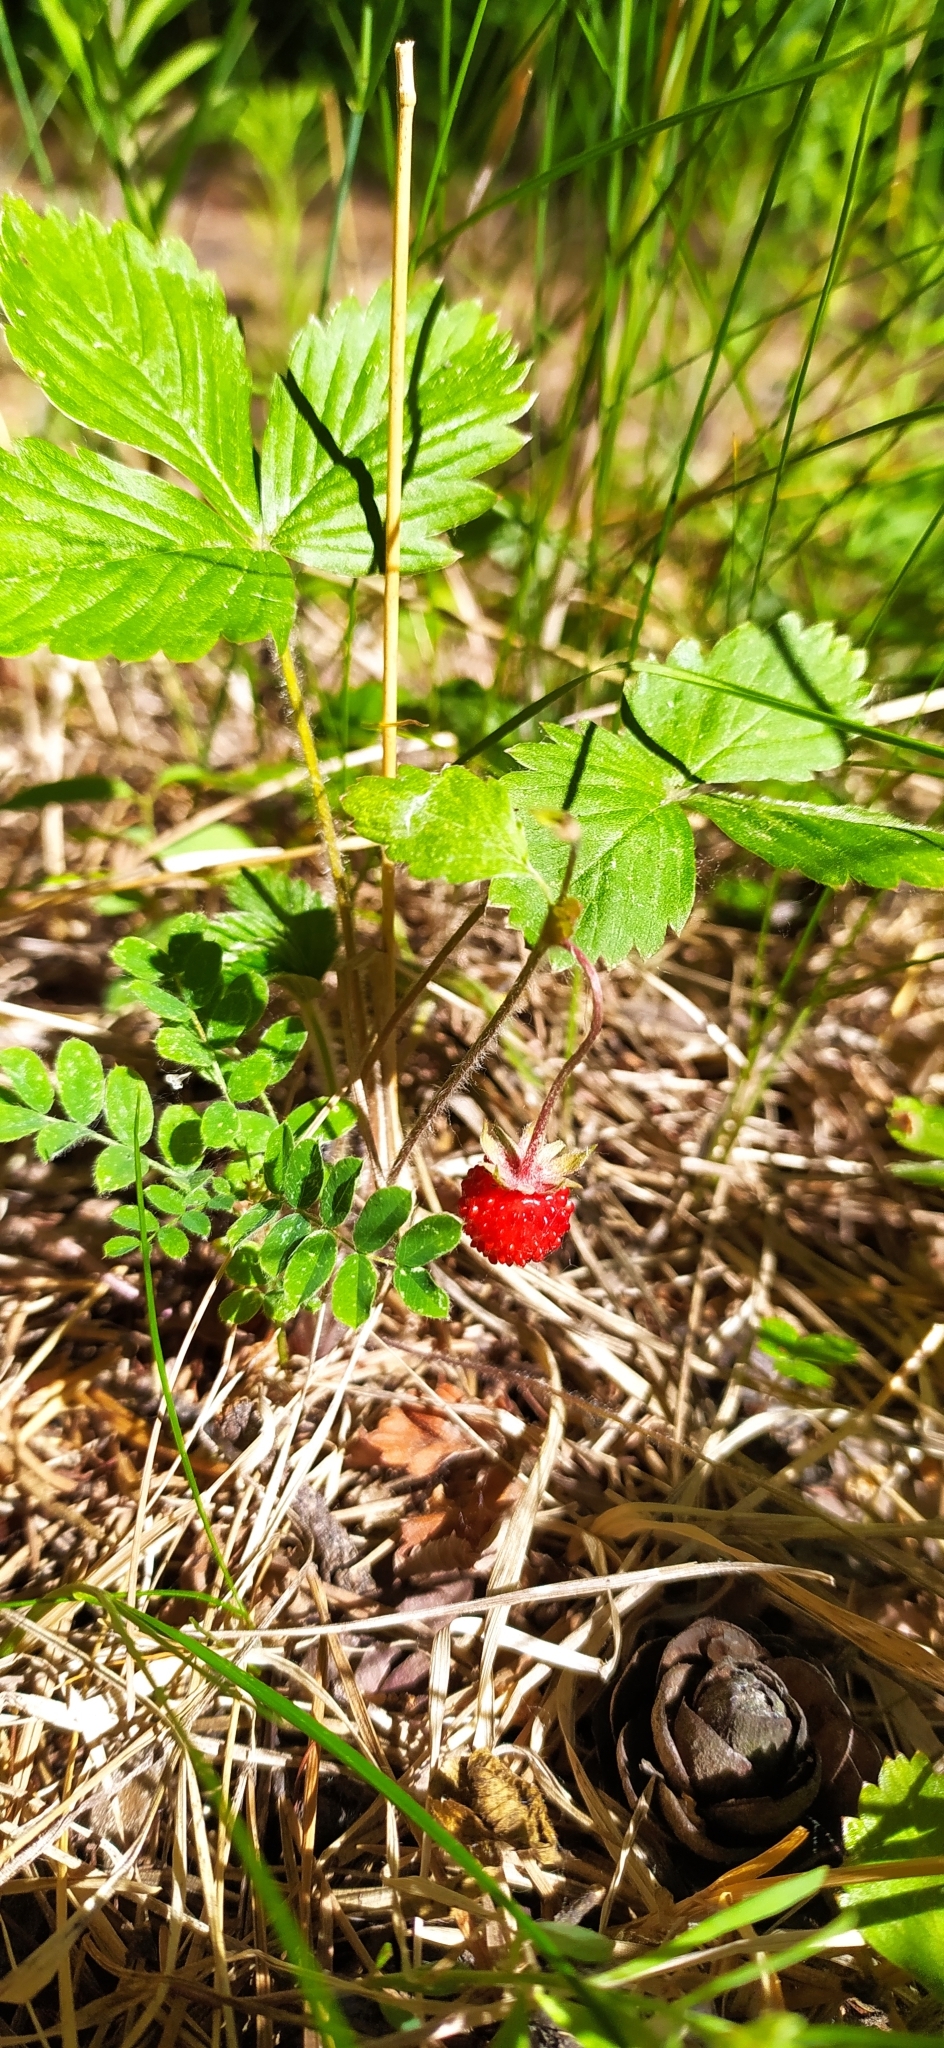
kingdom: Plantae
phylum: Tracheophyta
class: Magnoliopsida
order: Rosales
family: Rosaceae
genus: Fragaria
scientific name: Fragaria vesca
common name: Wild strawberry
